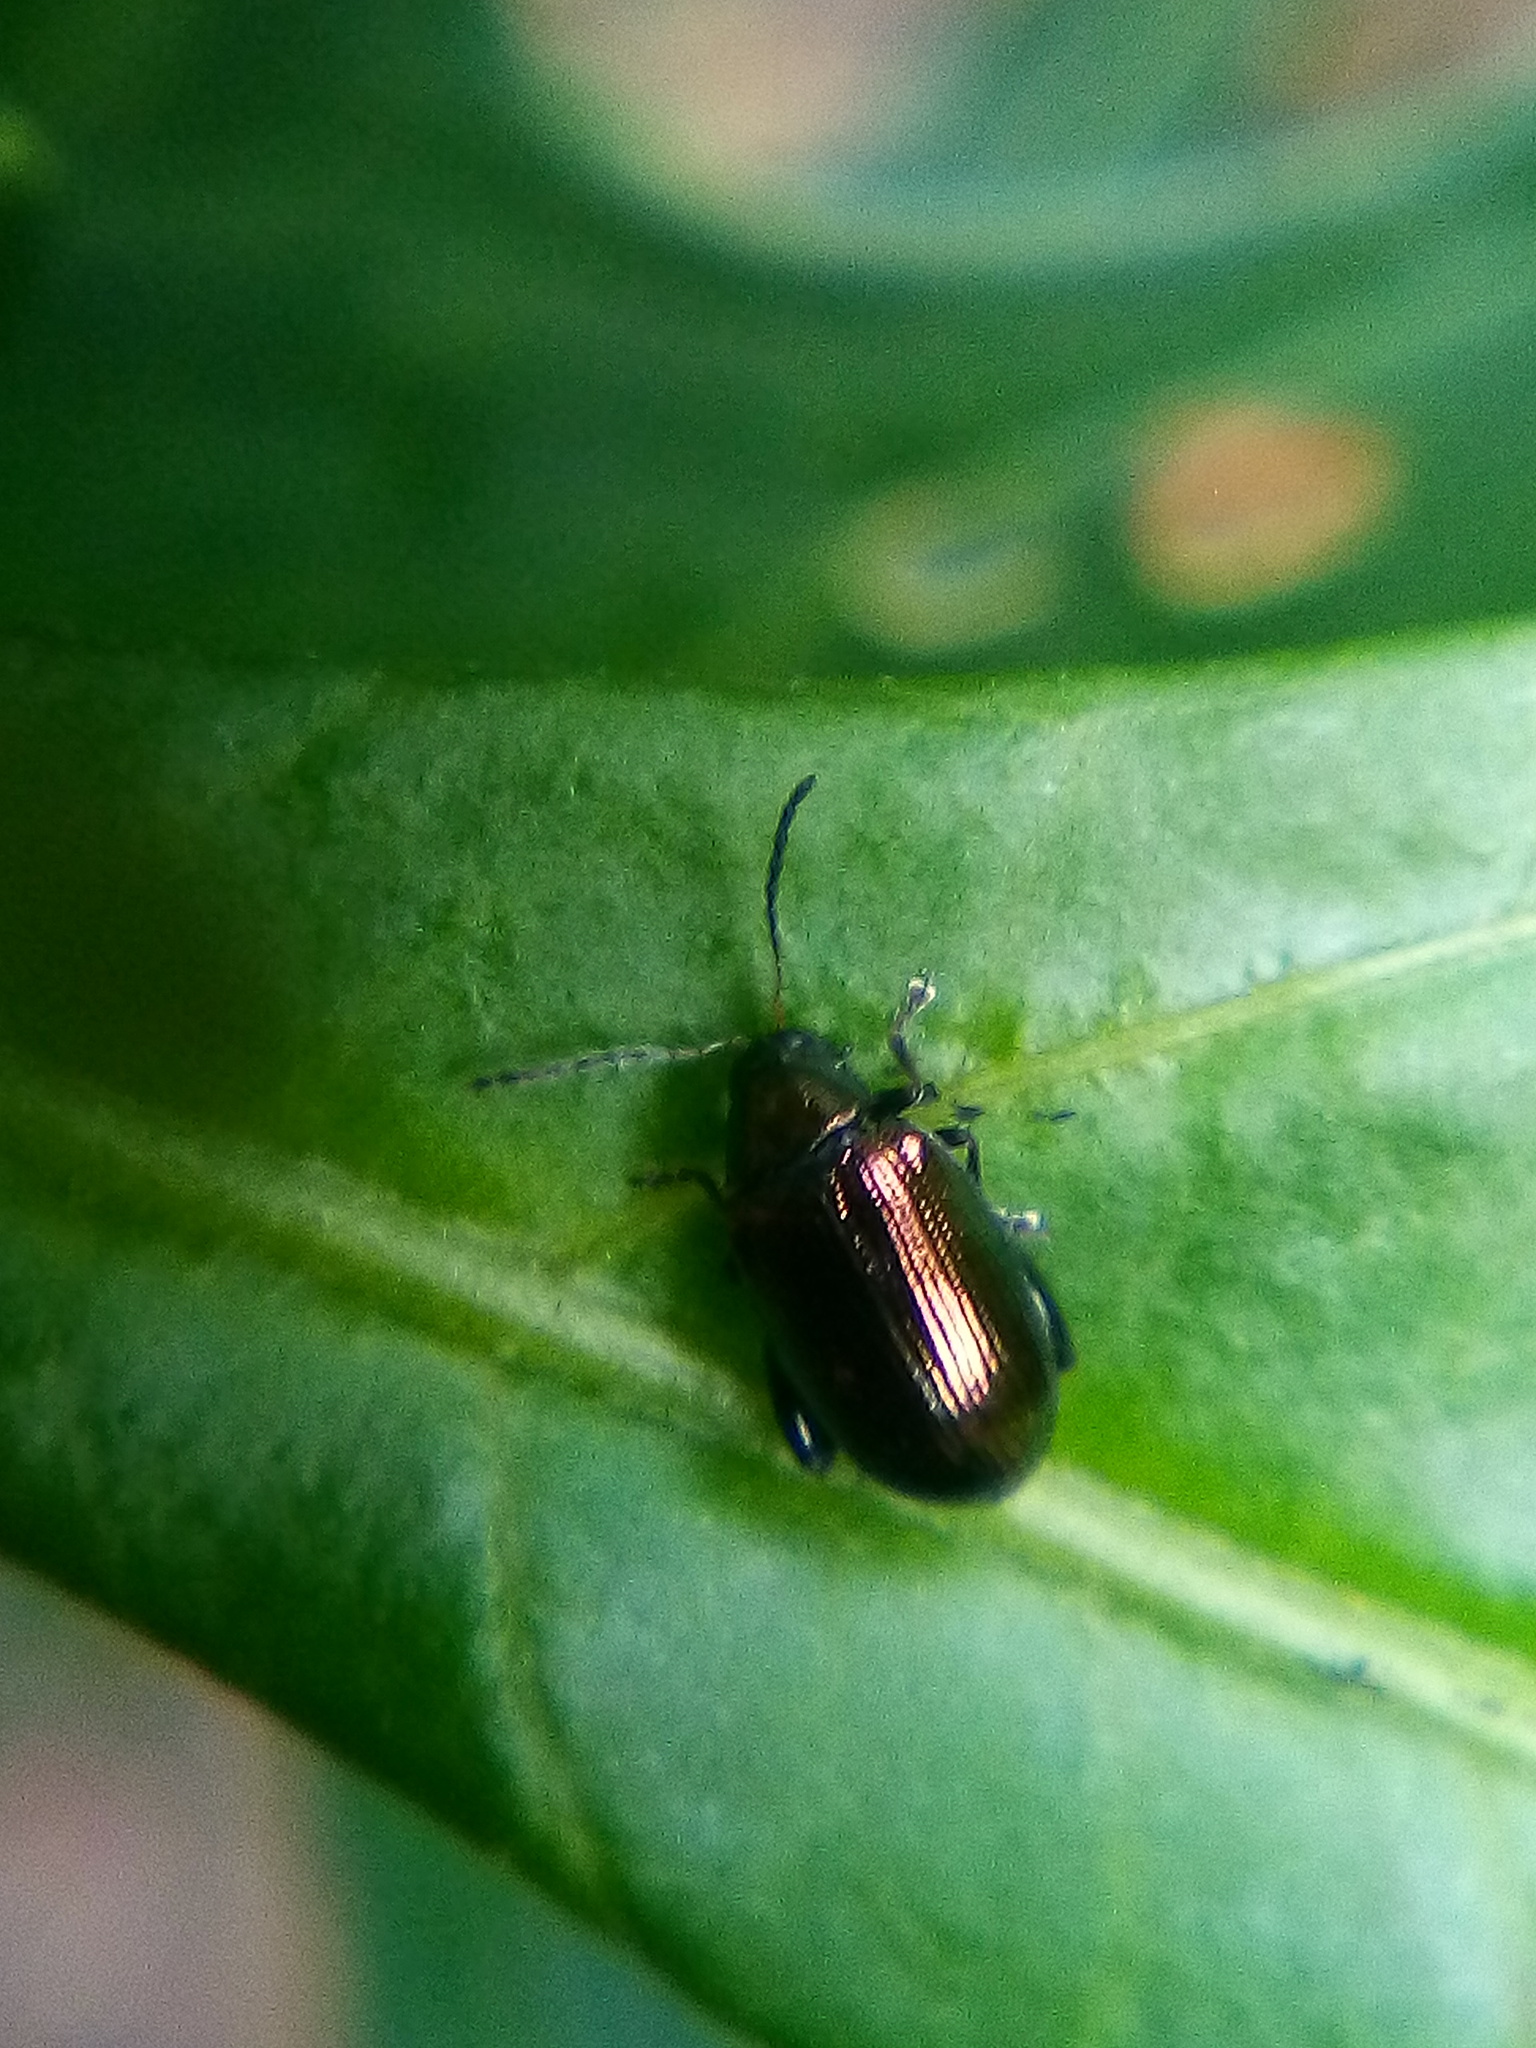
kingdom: Animalia
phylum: Arthropoda
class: Insecta
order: Coleoptera
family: Chrysomelidae
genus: Psylliodes
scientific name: Psylliodes brettinghami
